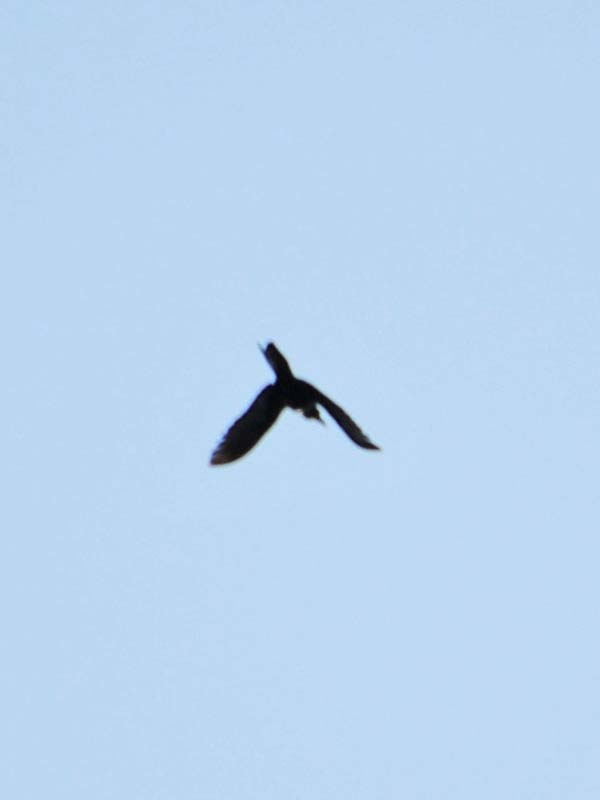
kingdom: Animalia
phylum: Chordata
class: Aves
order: Passeriformes
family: Icteridae
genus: Quiscalus
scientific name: Quiscalus mexicanus
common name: Great-tailed grackle
